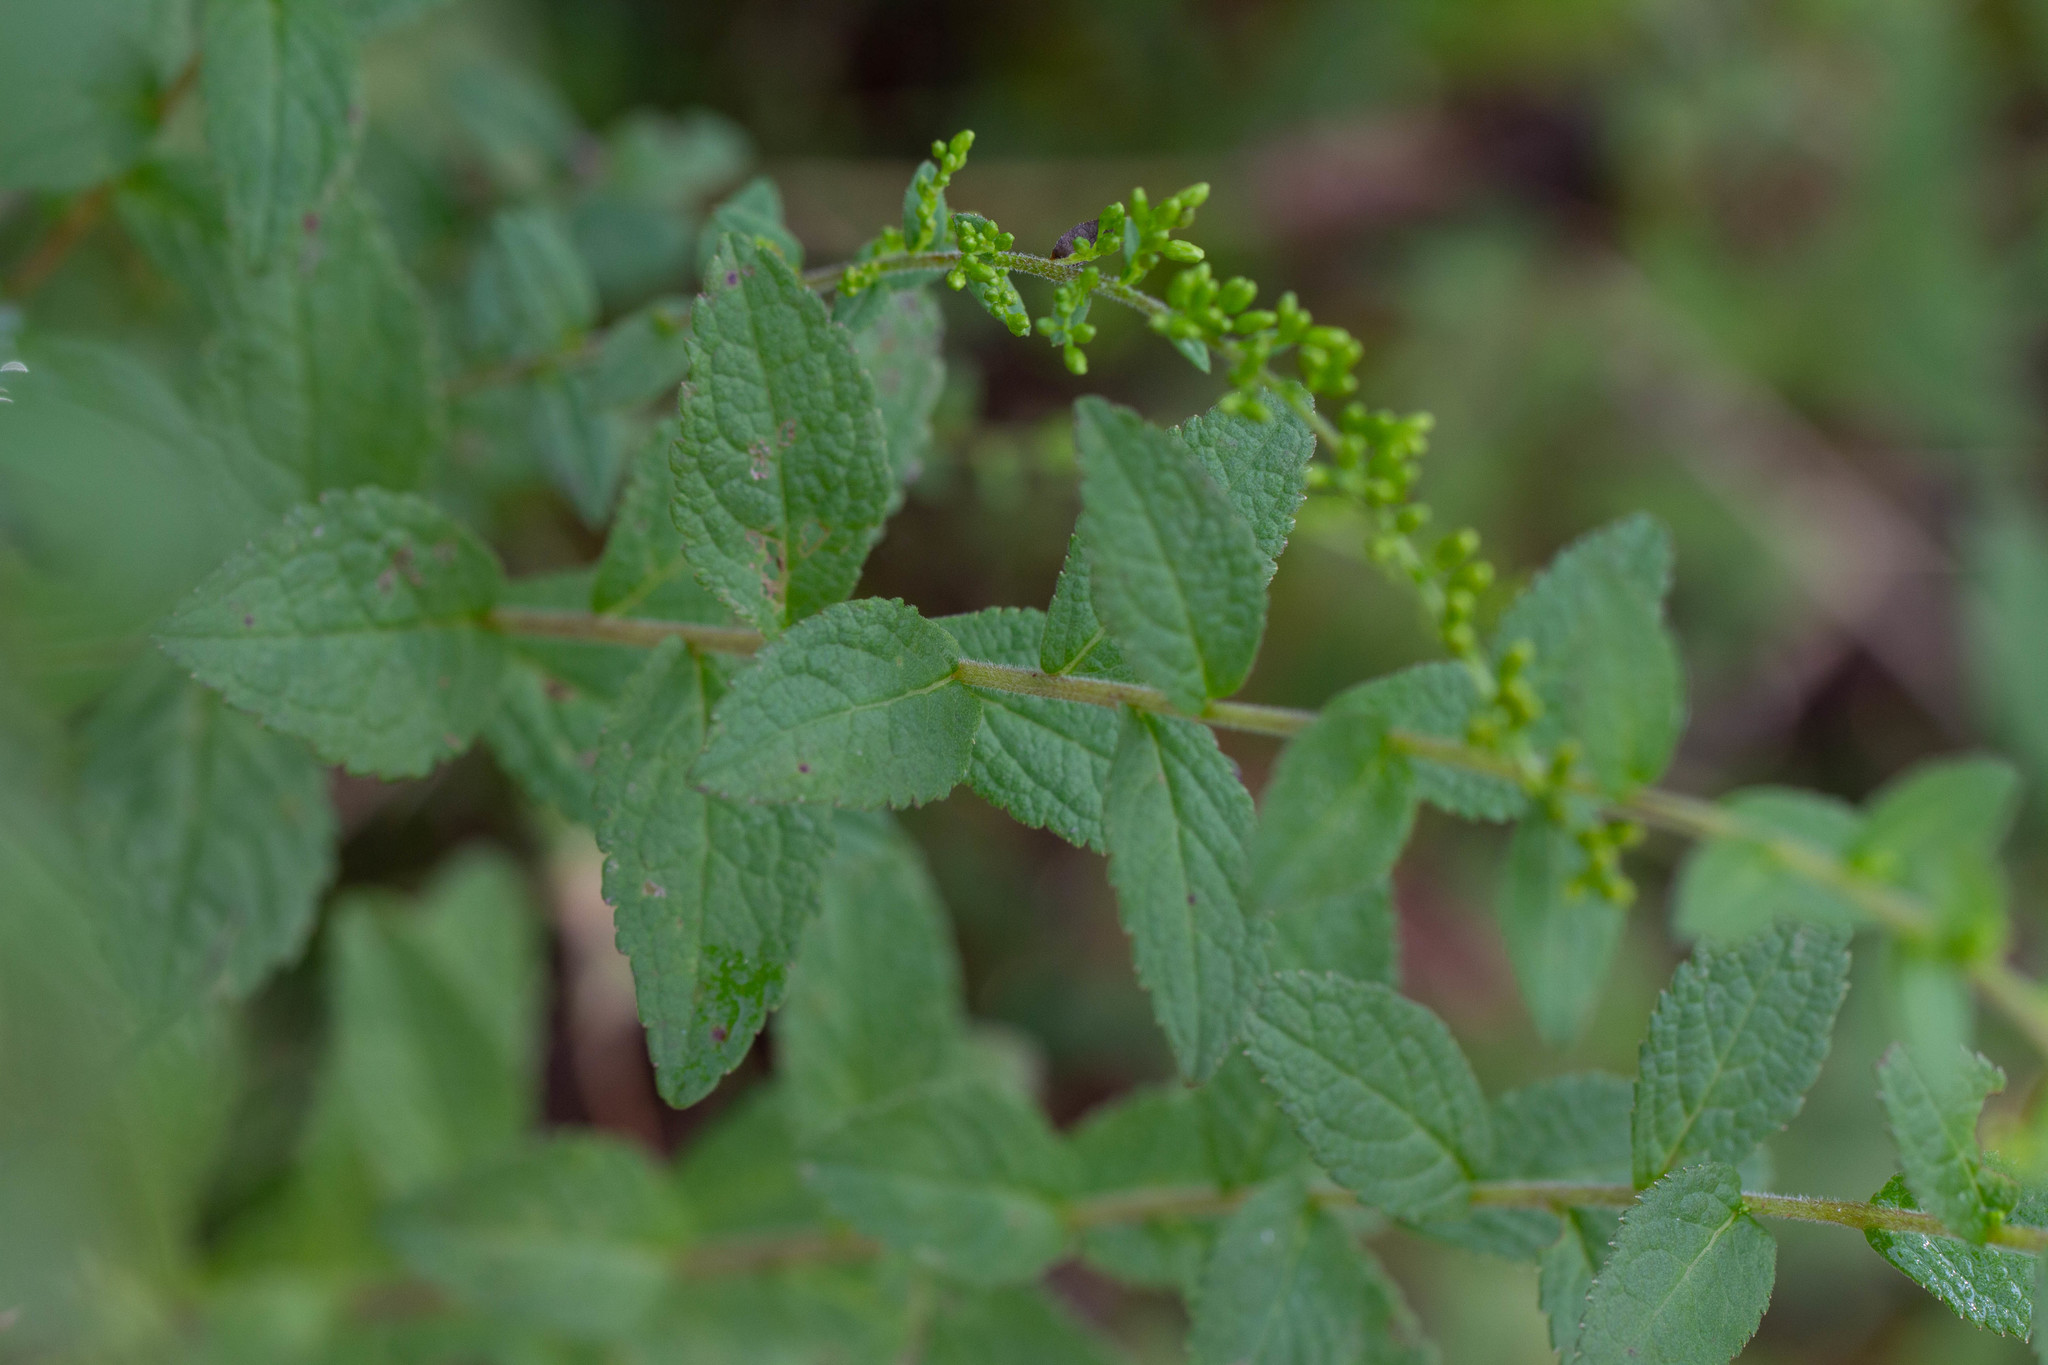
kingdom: Plantae
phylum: Tracheophyta
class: Magnoliopsida
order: Asterales
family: Asteraceae
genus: Solidago
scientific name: Solidago rugosa
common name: Rough-stemmed goldenrod
